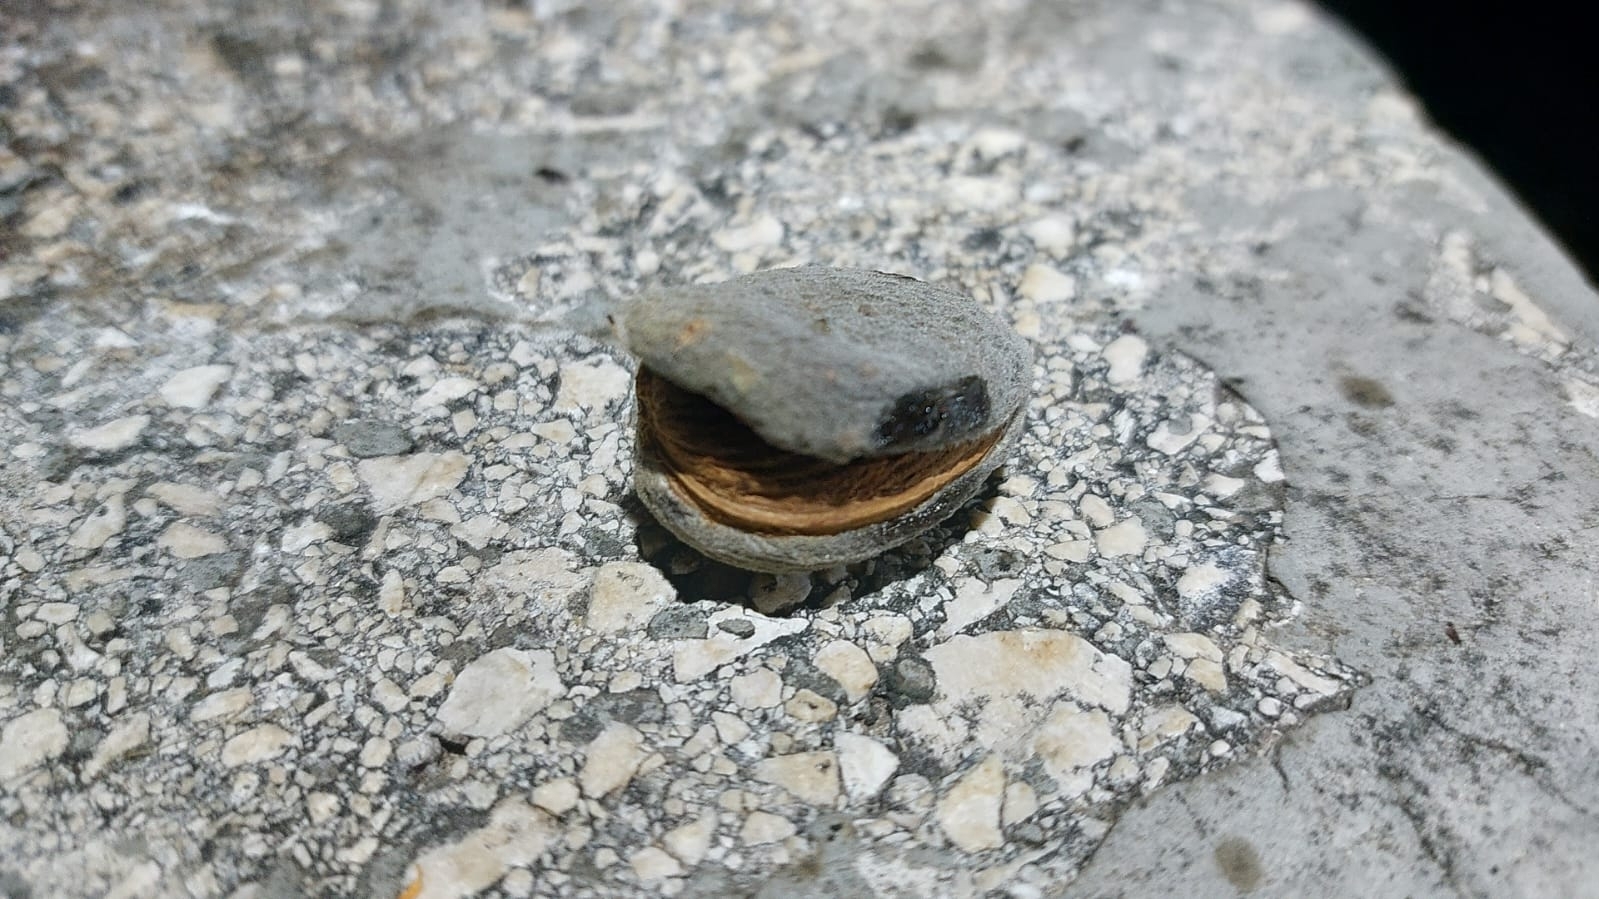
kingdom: Plantae
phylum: Tracheophyta
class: Magnoliopsida
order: Rosales
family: Rosaceae
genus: Prunus
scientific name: Prunus amygdalus
